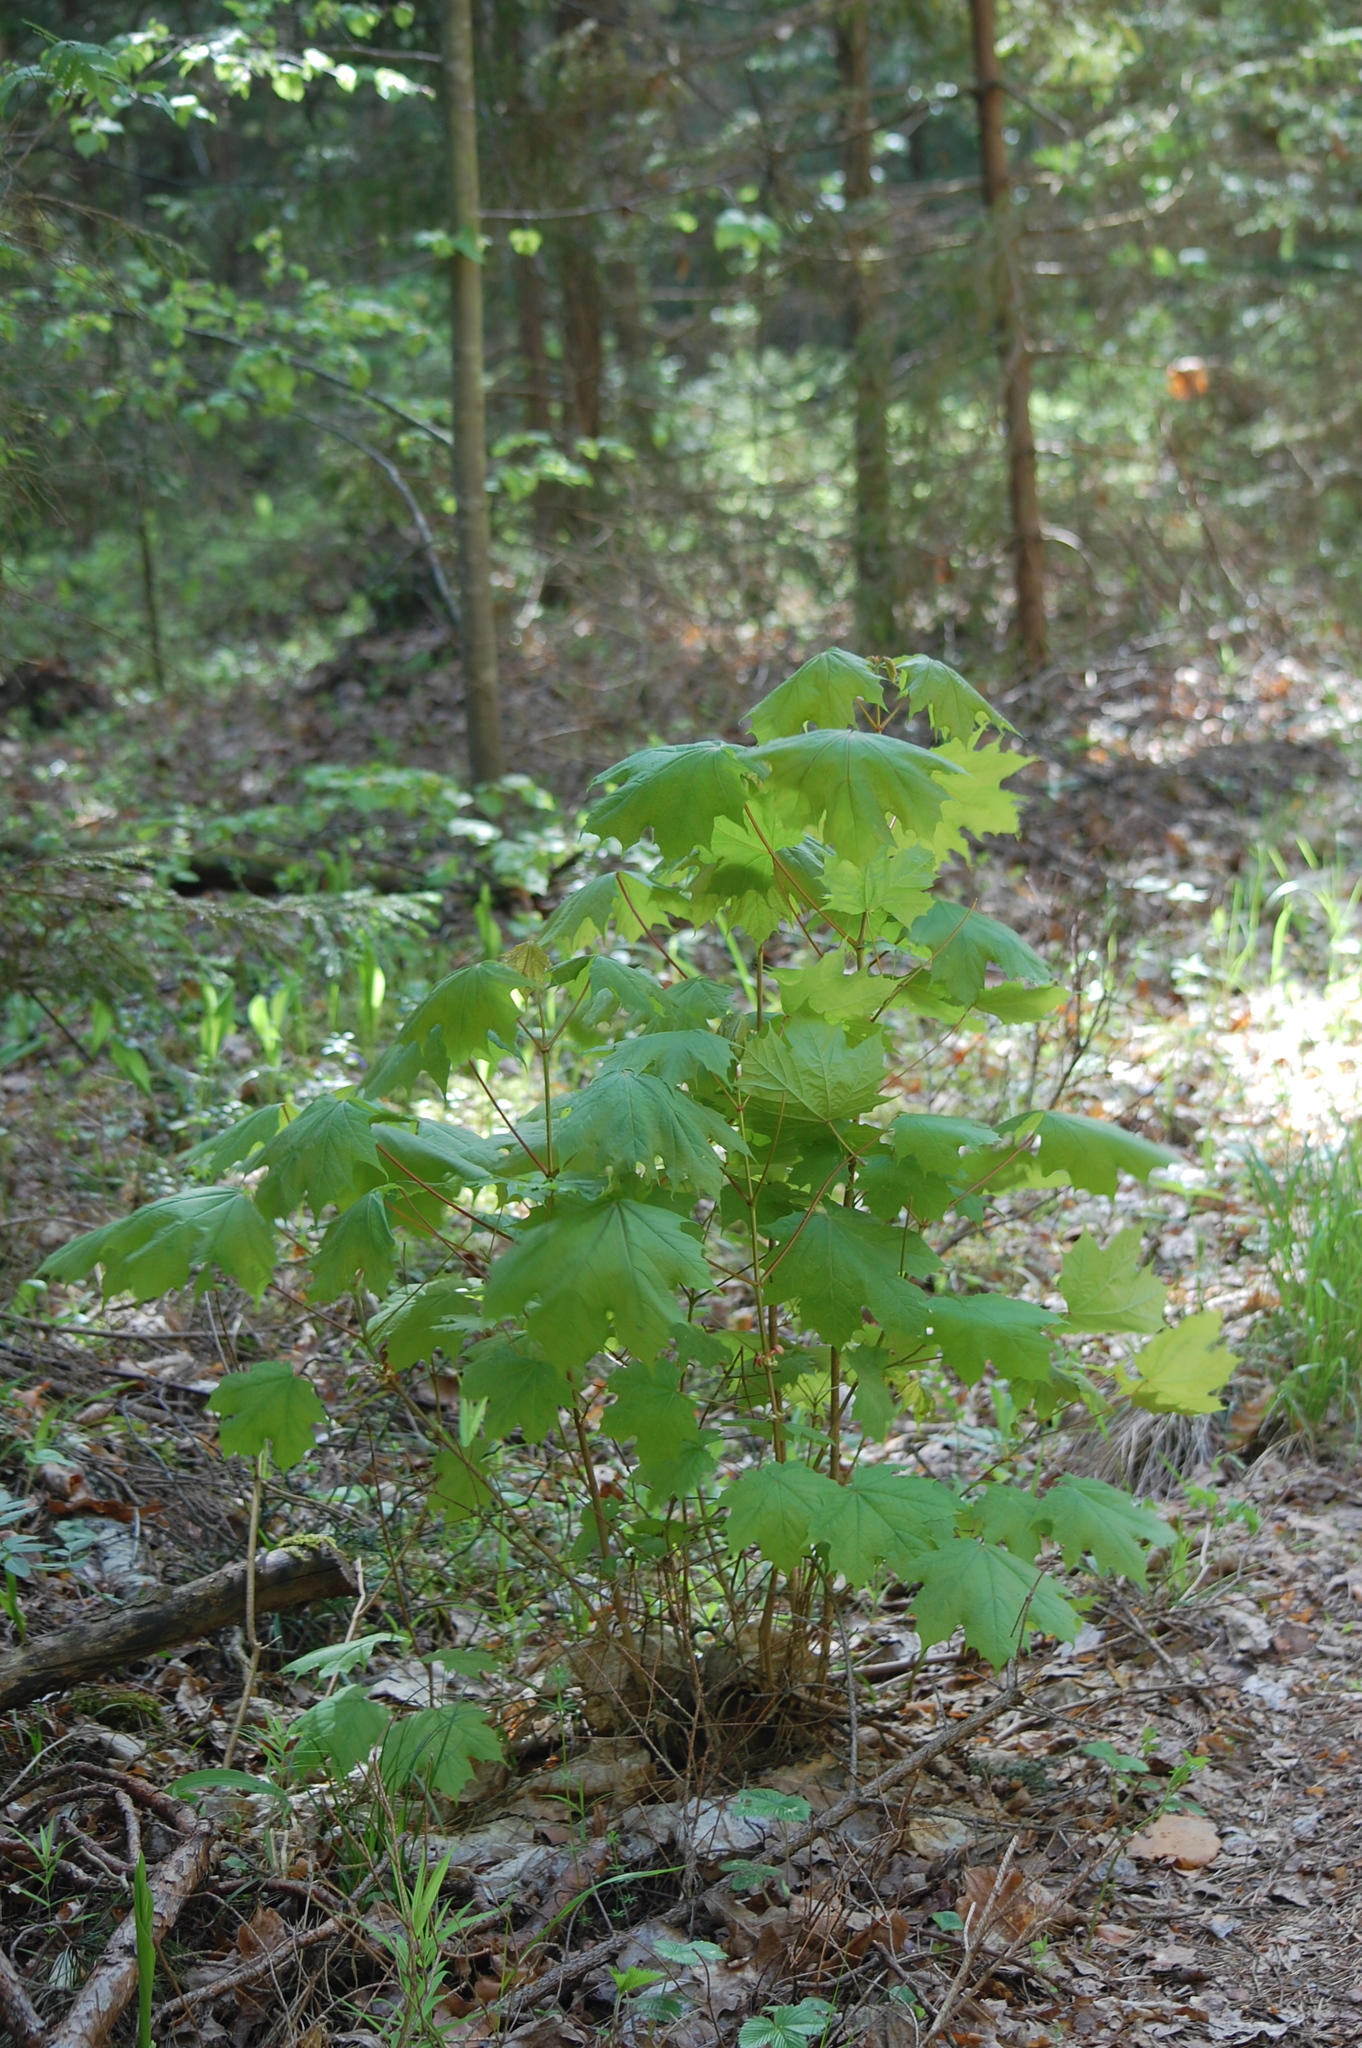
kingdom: Plantae
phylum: Tracheophyta
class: Magnoliopsida
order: Sapindales
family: Sapindaceae
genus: Acer
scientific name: Acer platanoides
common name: Norway maple
